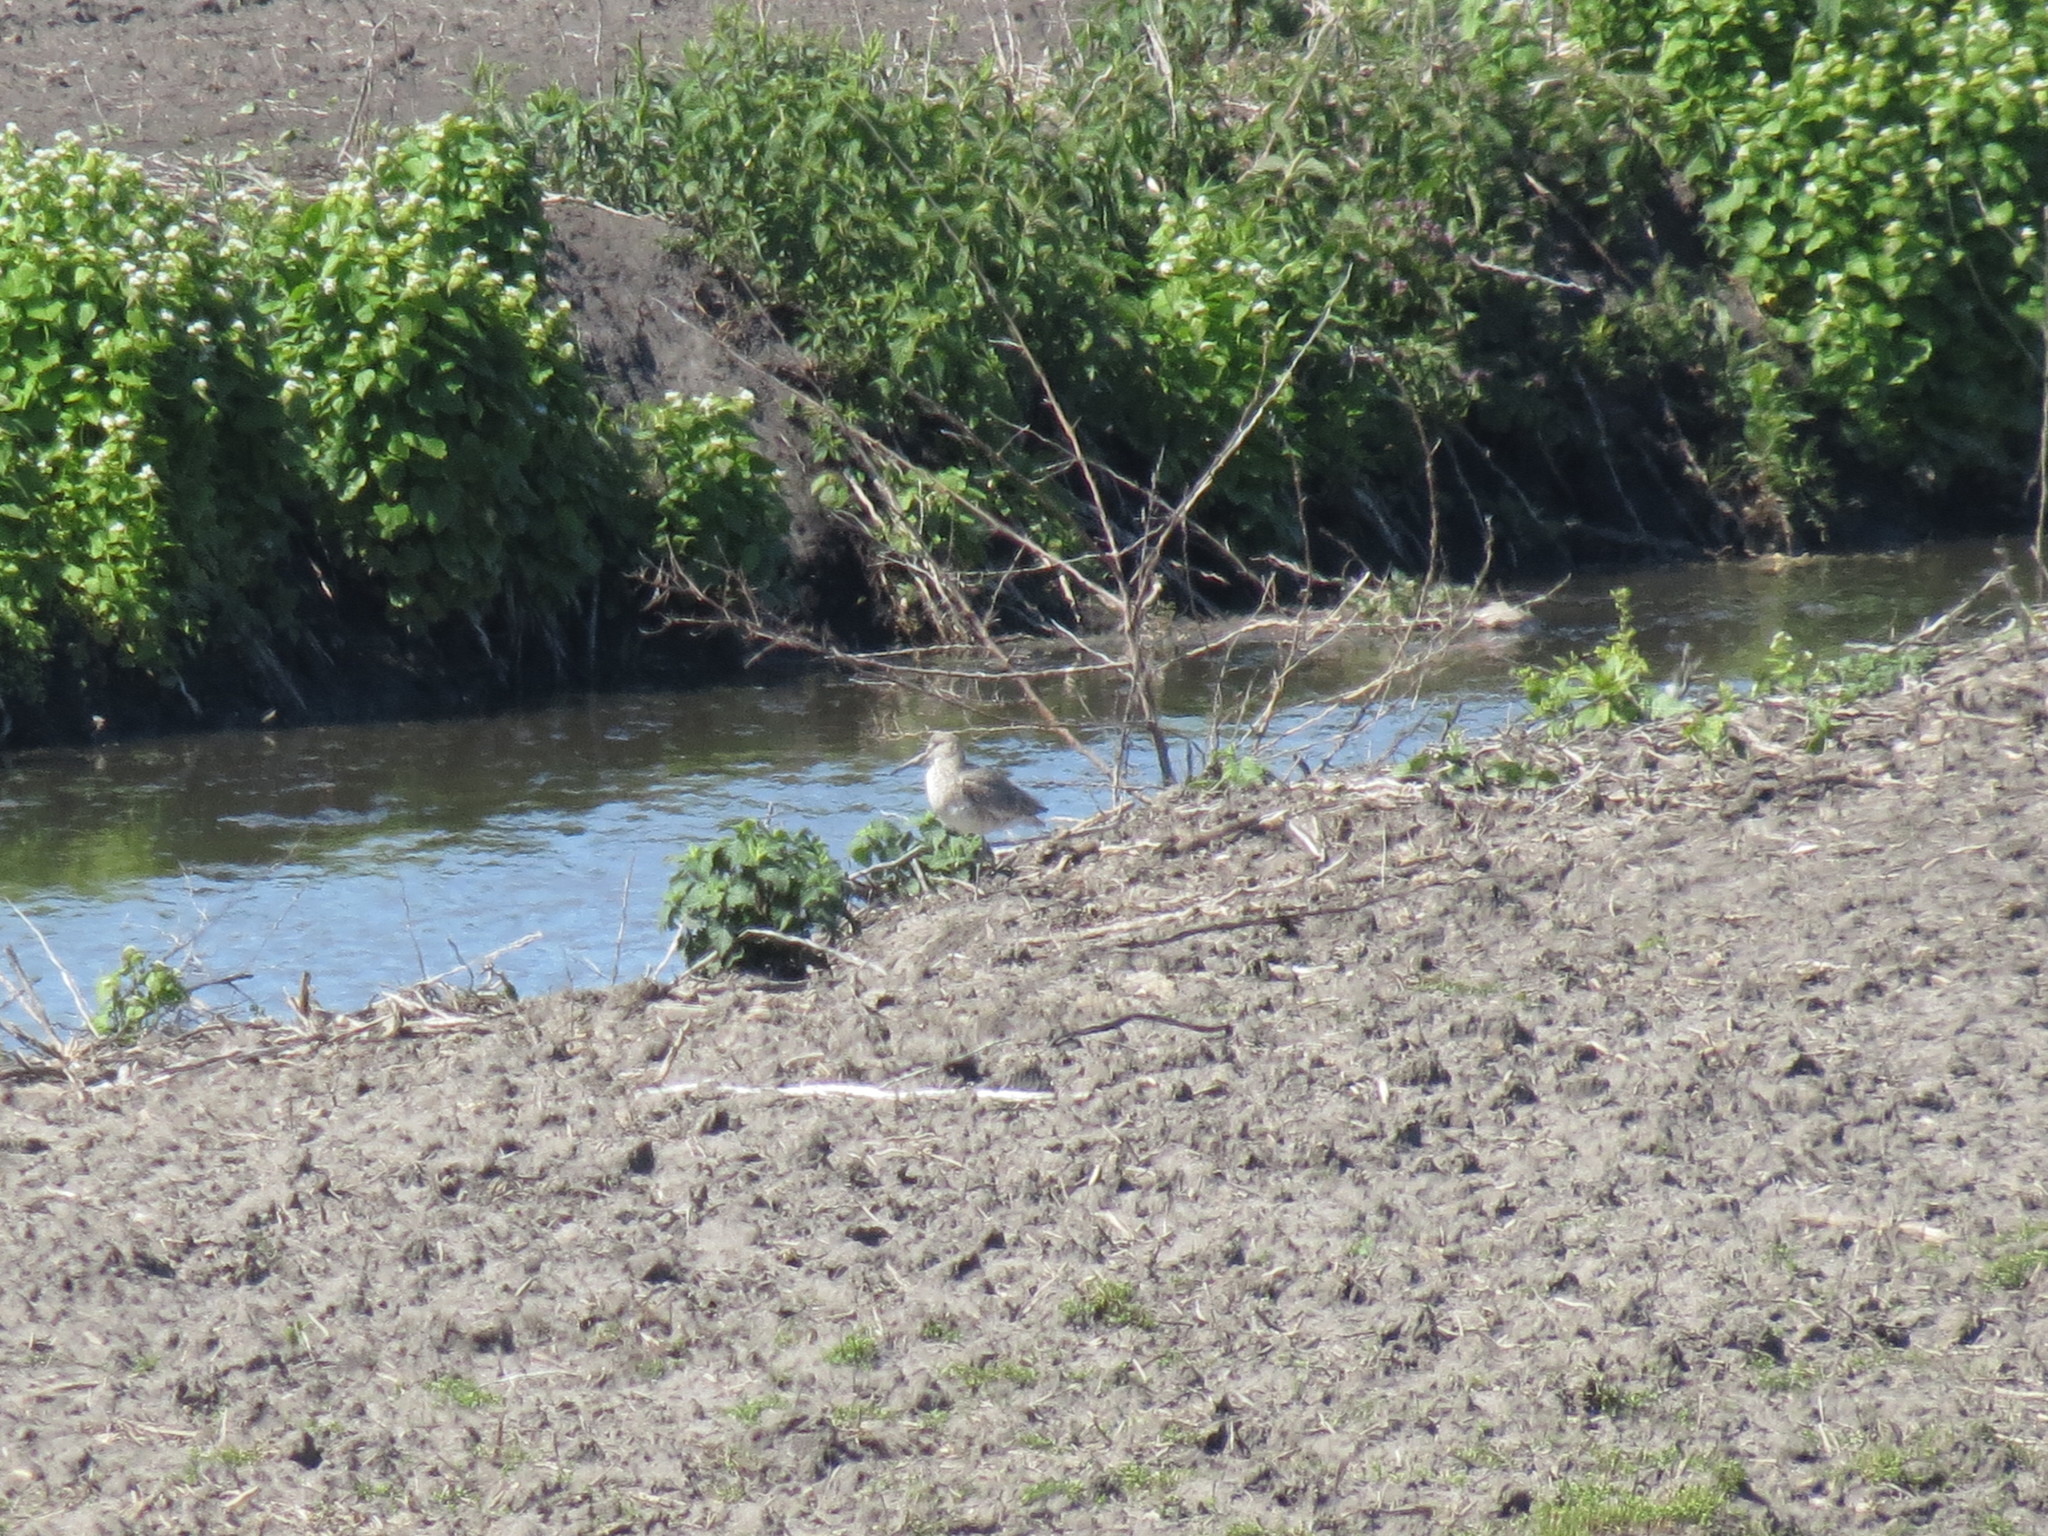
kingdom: Animalia
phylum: Chordata
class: Aves
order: Charadriiformes
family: Scolopacidae
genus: Tringa
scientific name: Tringa semipalmata
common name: Willet
